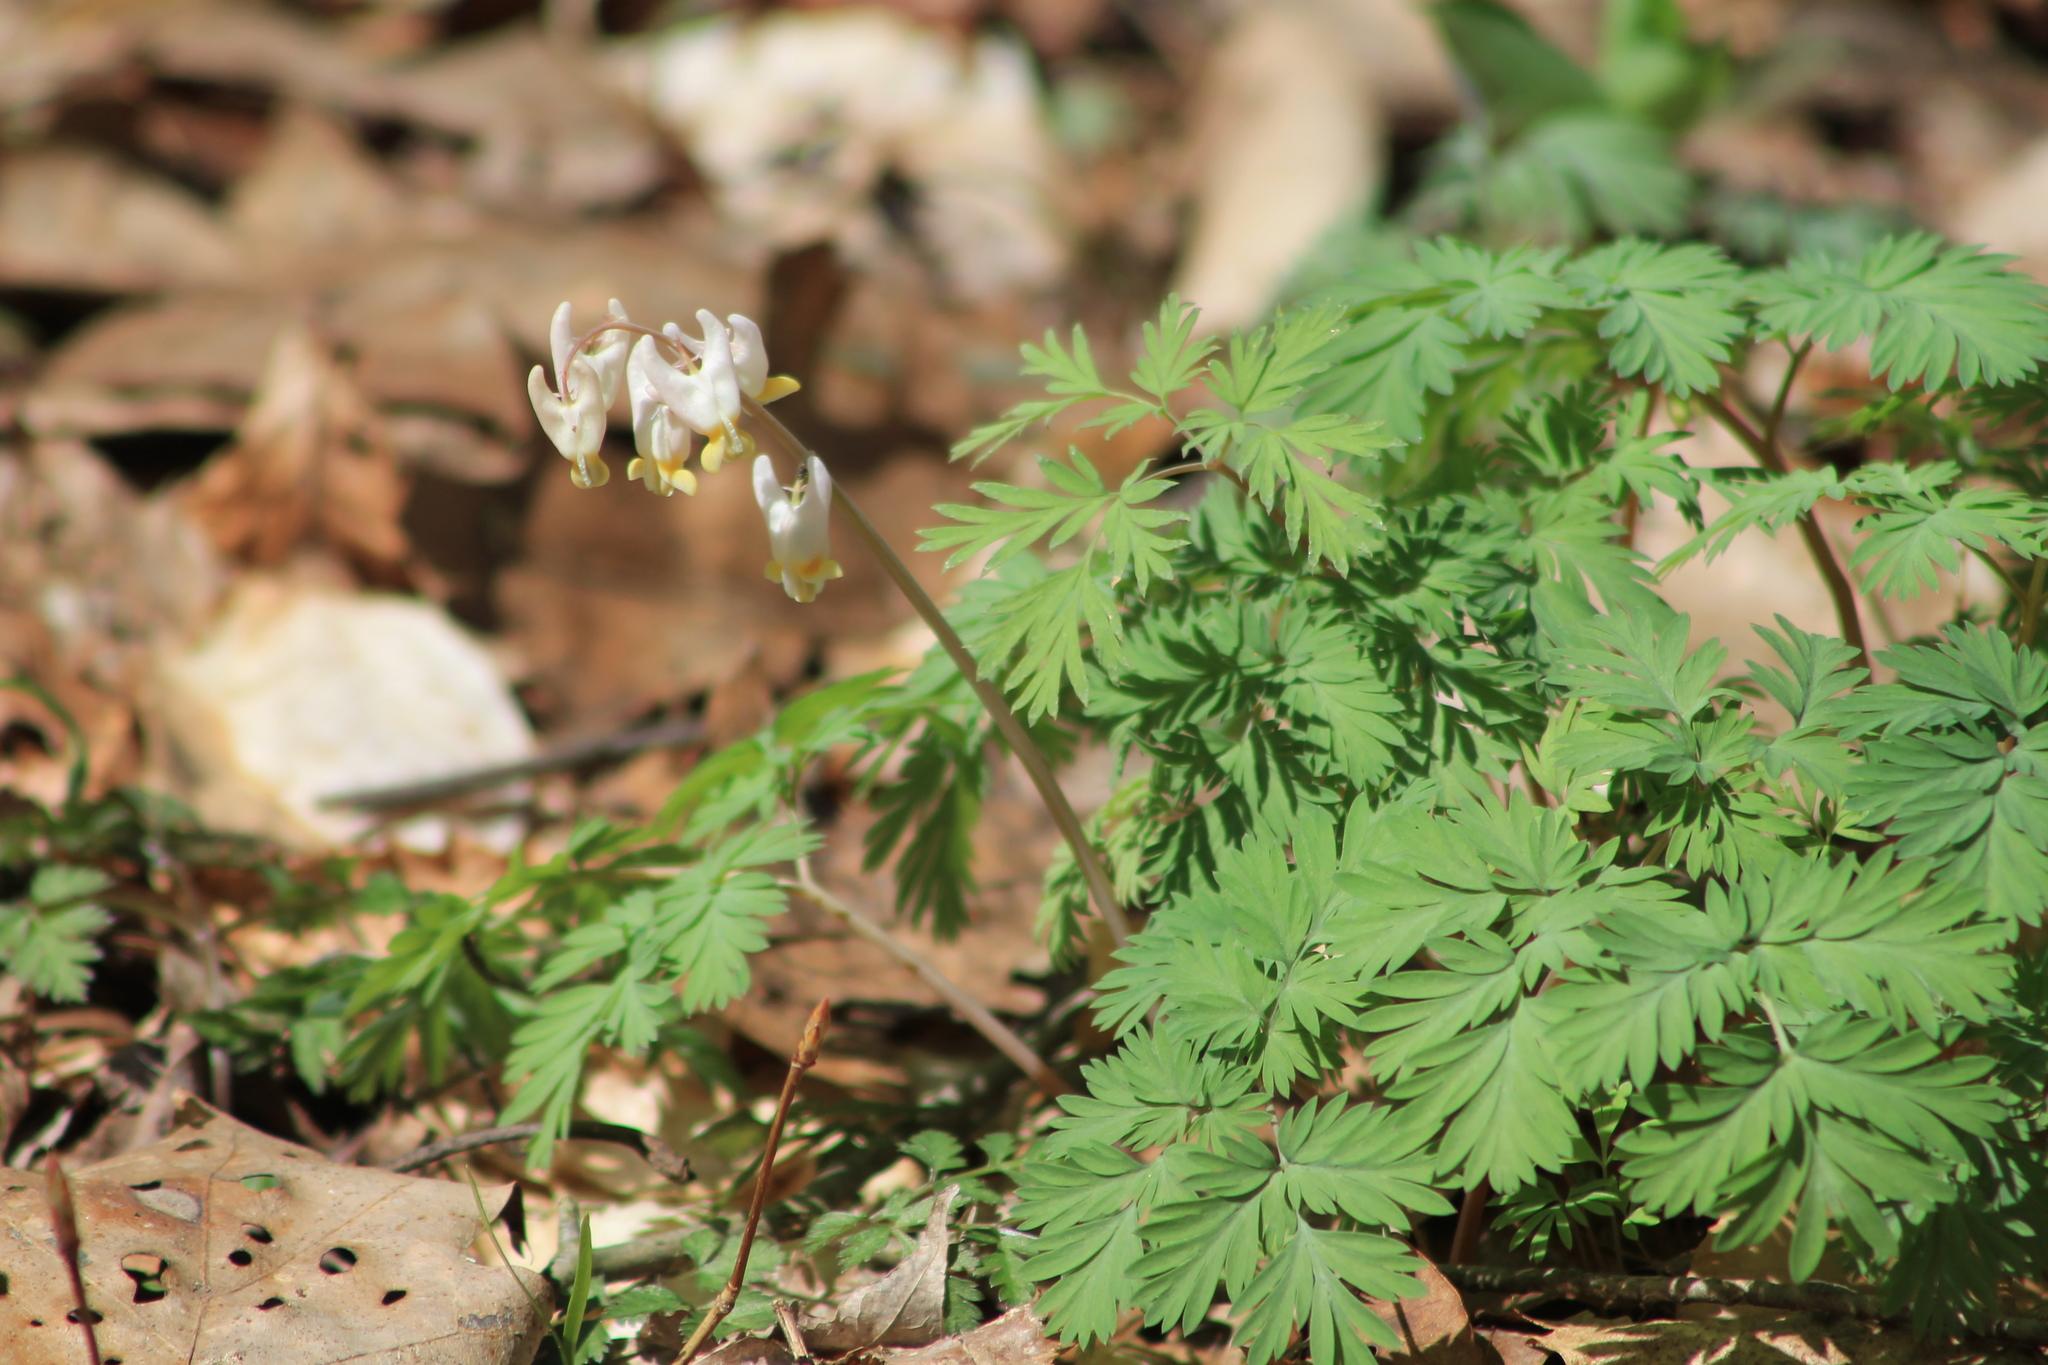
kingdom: Plantae
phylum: Tracheophyta
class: Magnoliopsida
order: Ranunculales
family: Papaveraceae
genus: Dicentra
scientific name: Dicentra cucullaria
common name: Dutchman's breeches
